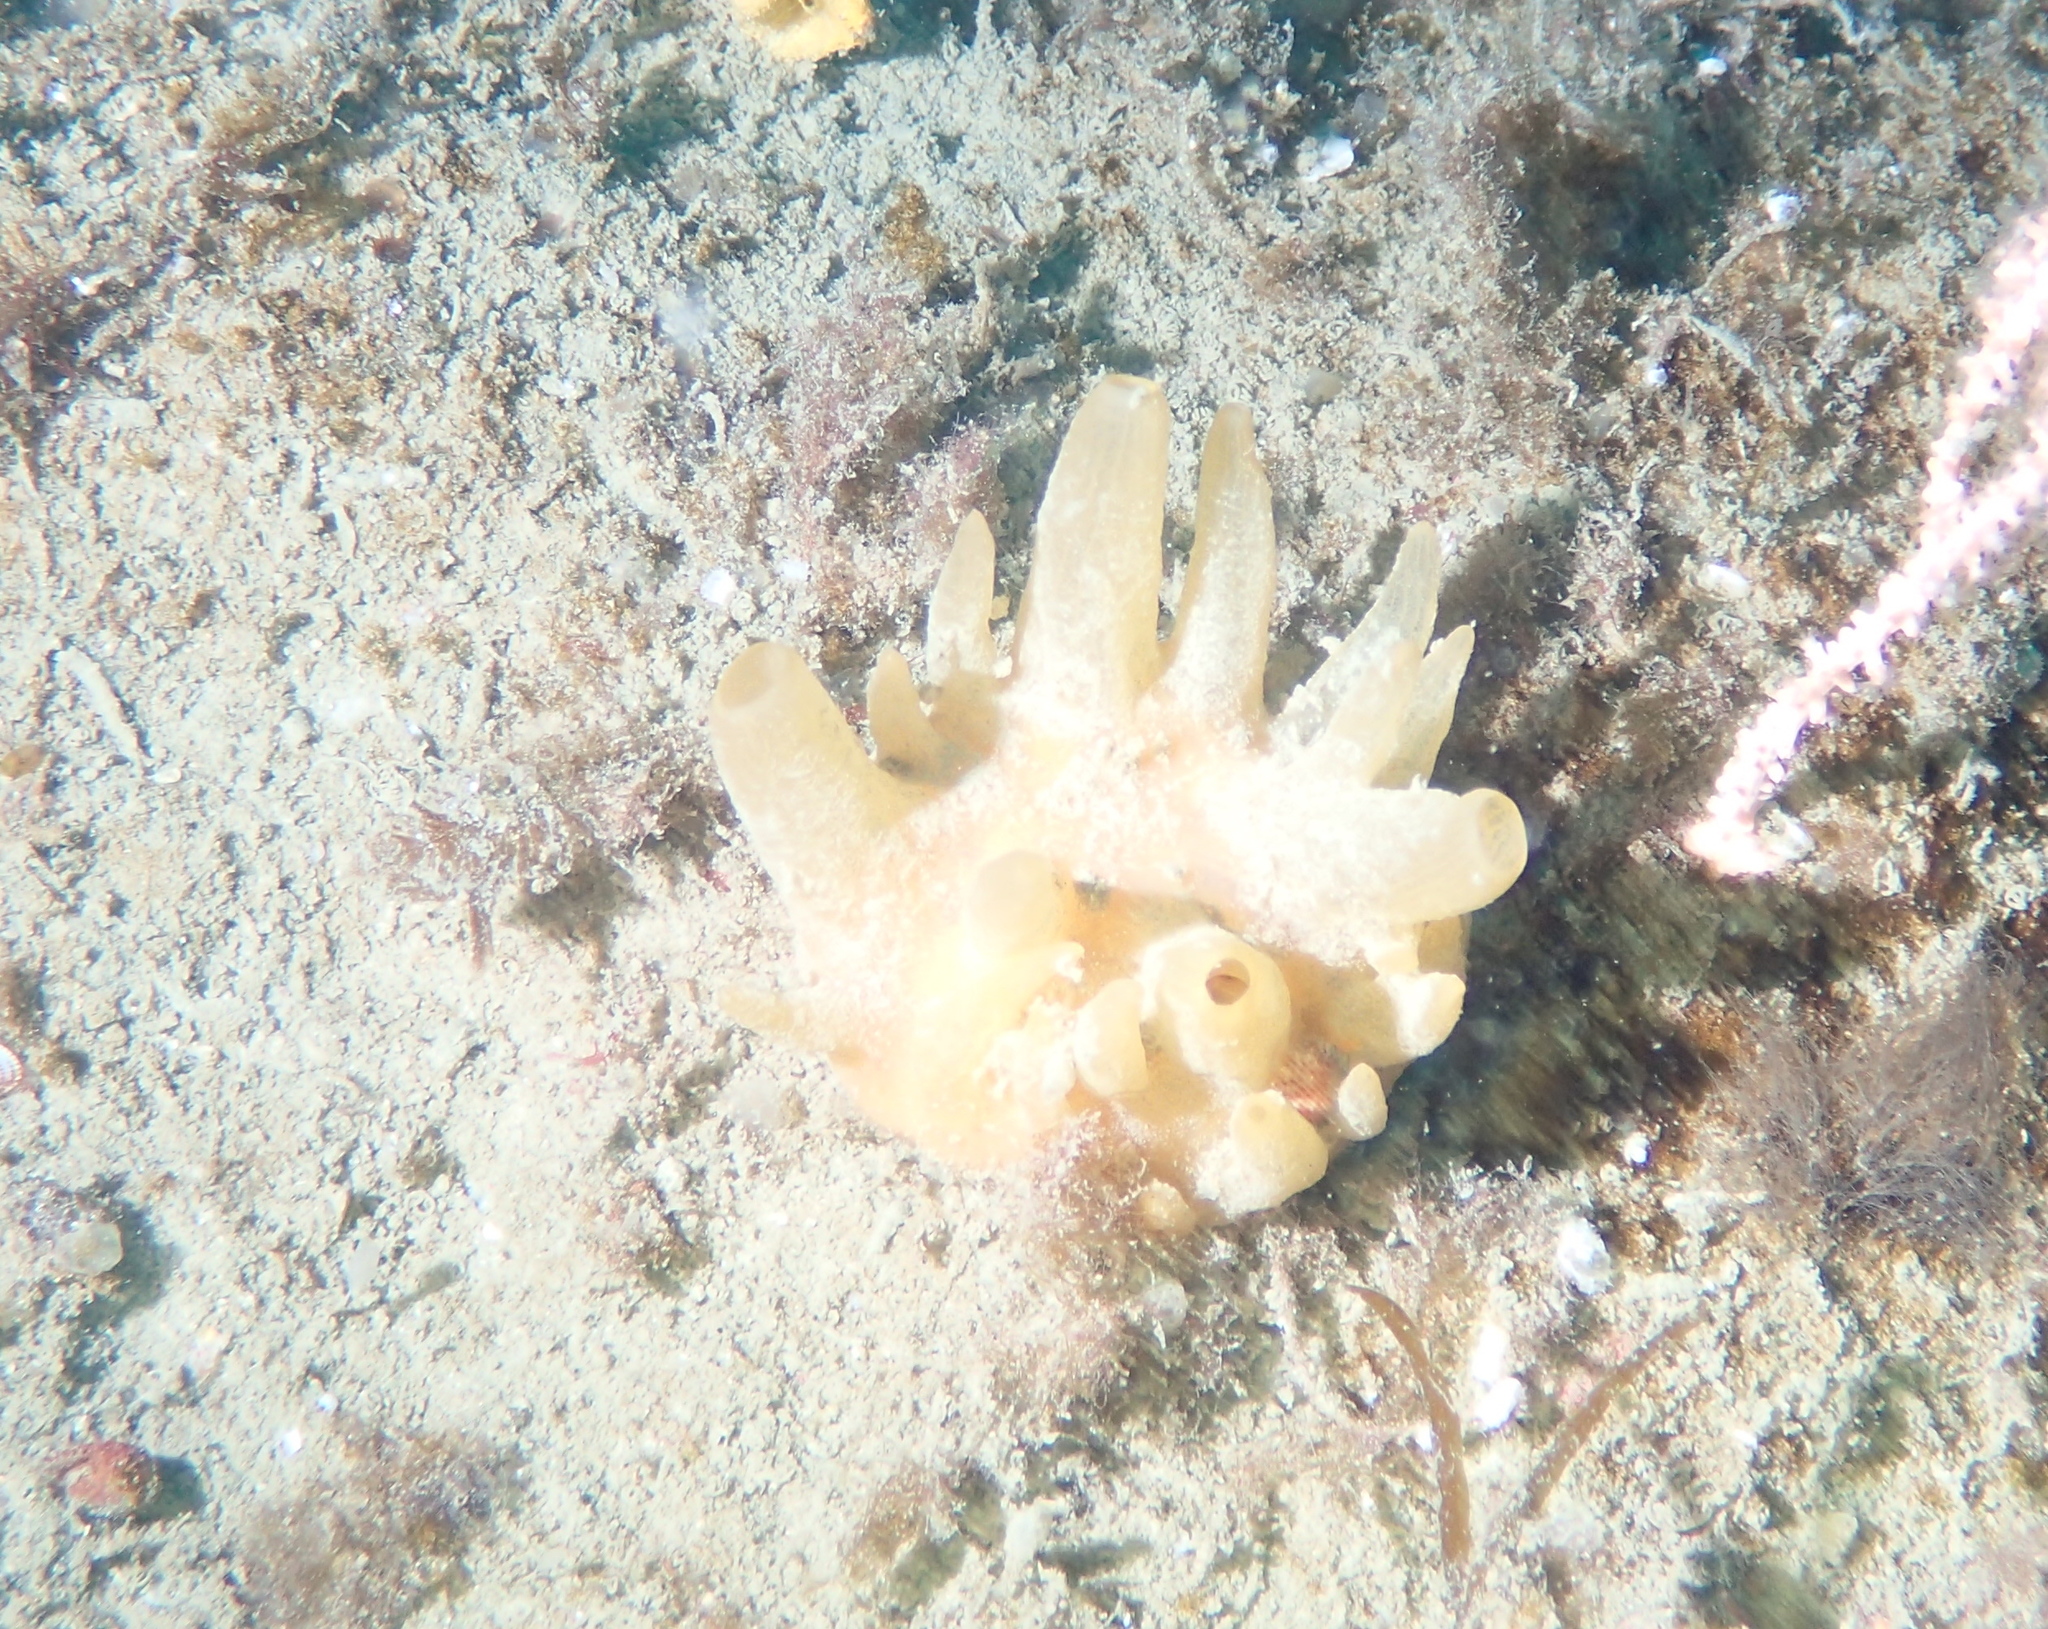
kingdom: Animalia
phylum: Porifera
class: Demospongiae
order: Polymastiida
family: Polymastiidae
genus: Polymastia
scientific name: Polymastia boletiformis
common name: Massive horny sponge
